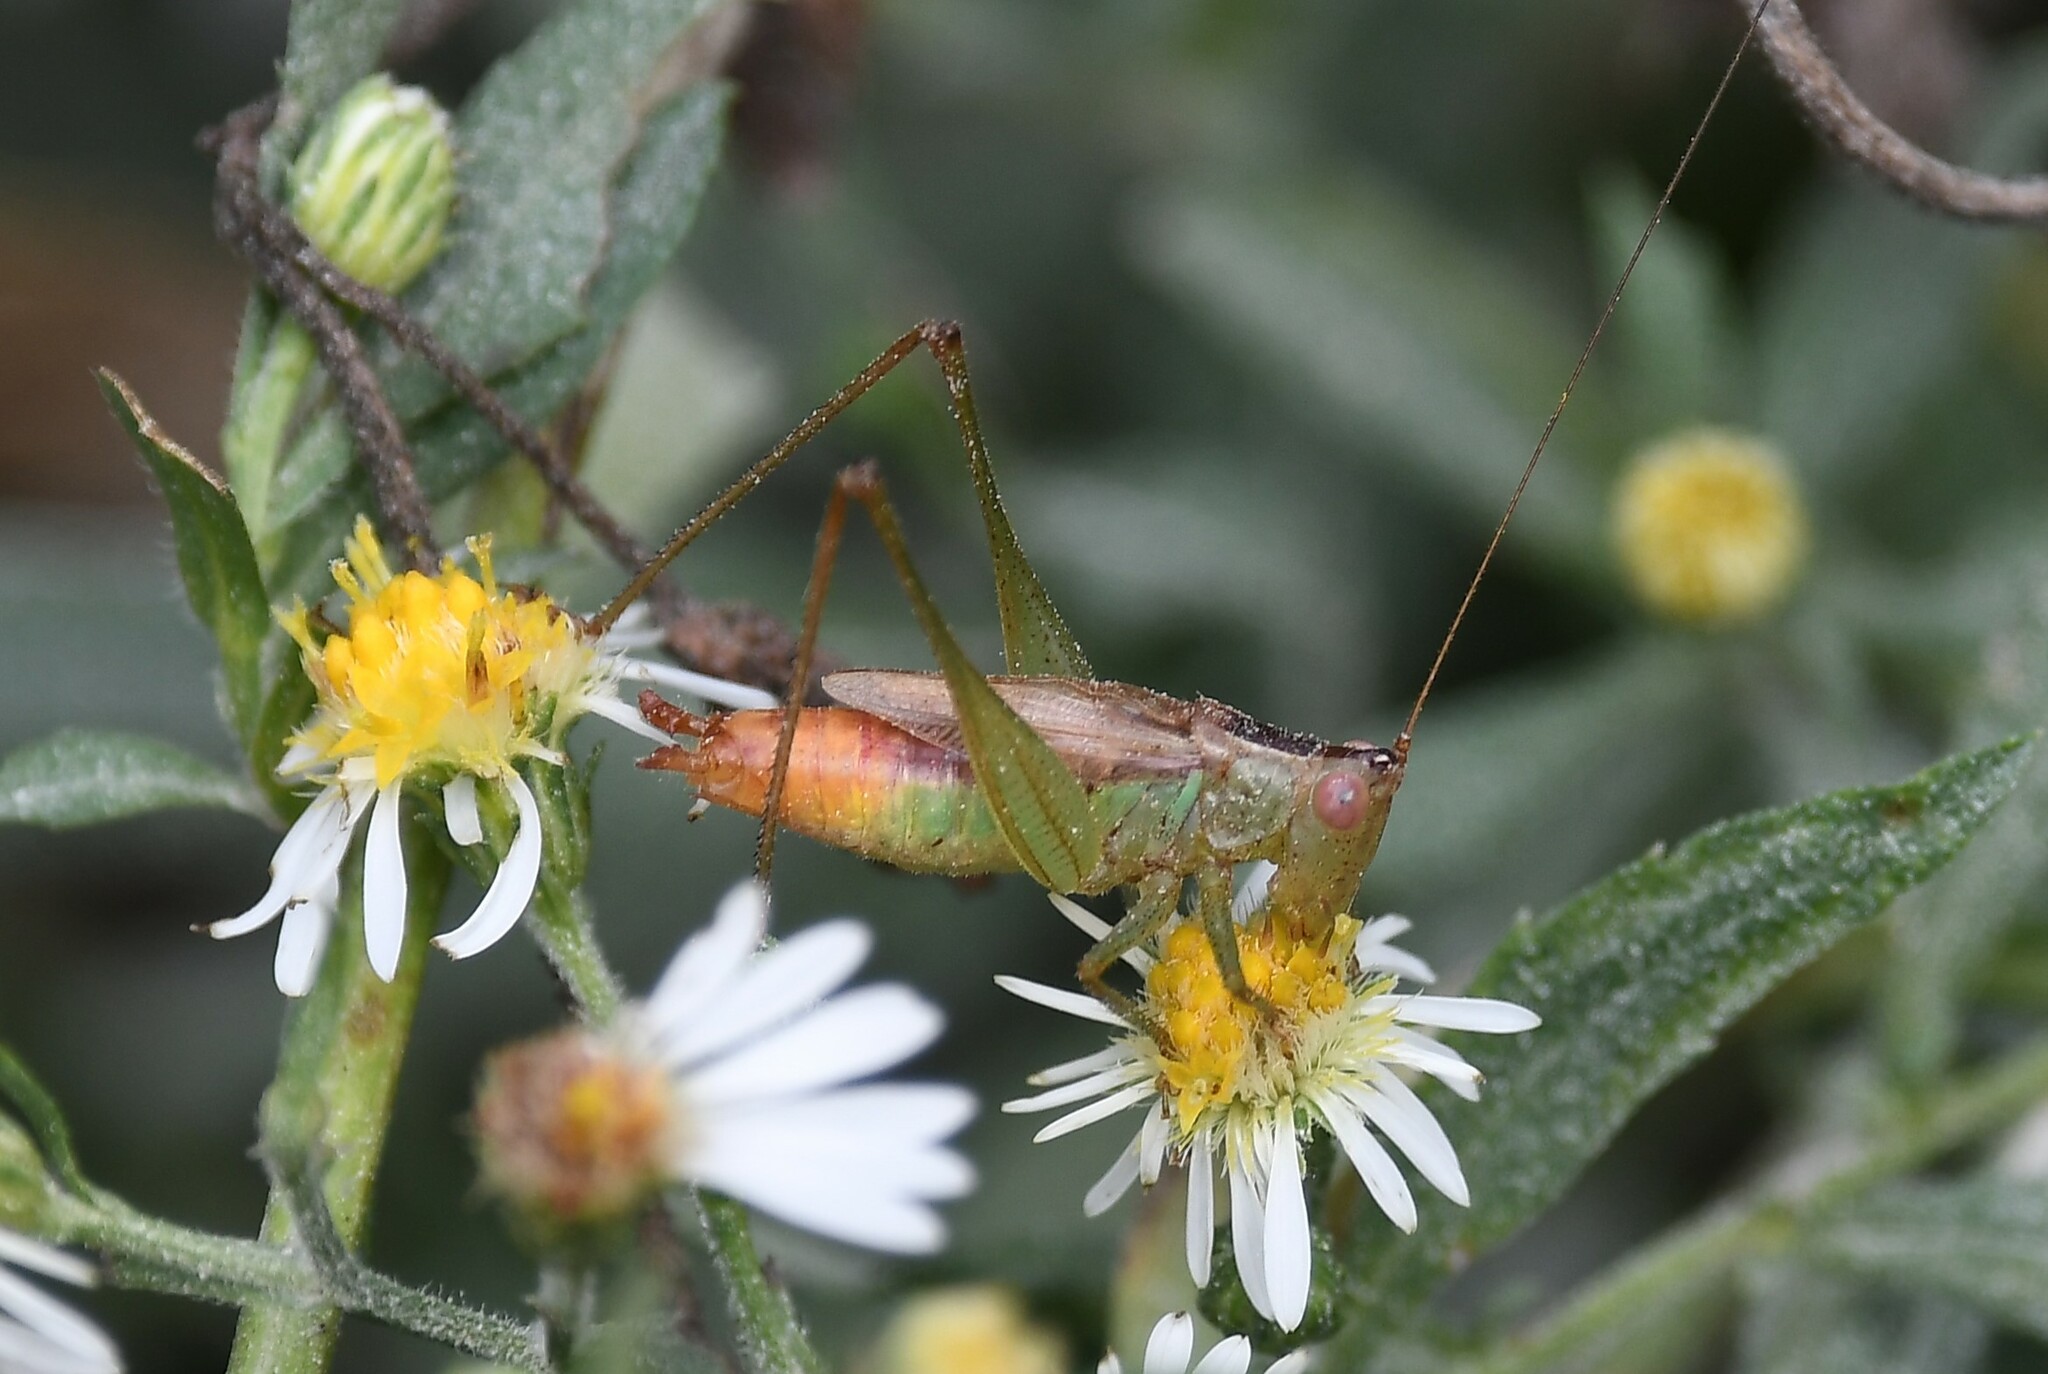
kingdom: Animalia
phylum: Arthropoda
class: Insecta
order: Orthoptera
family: Tettigoniidae
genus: Conocephalus
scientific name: Conocephalus brevipennis
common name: Short-winged meadow katydid
